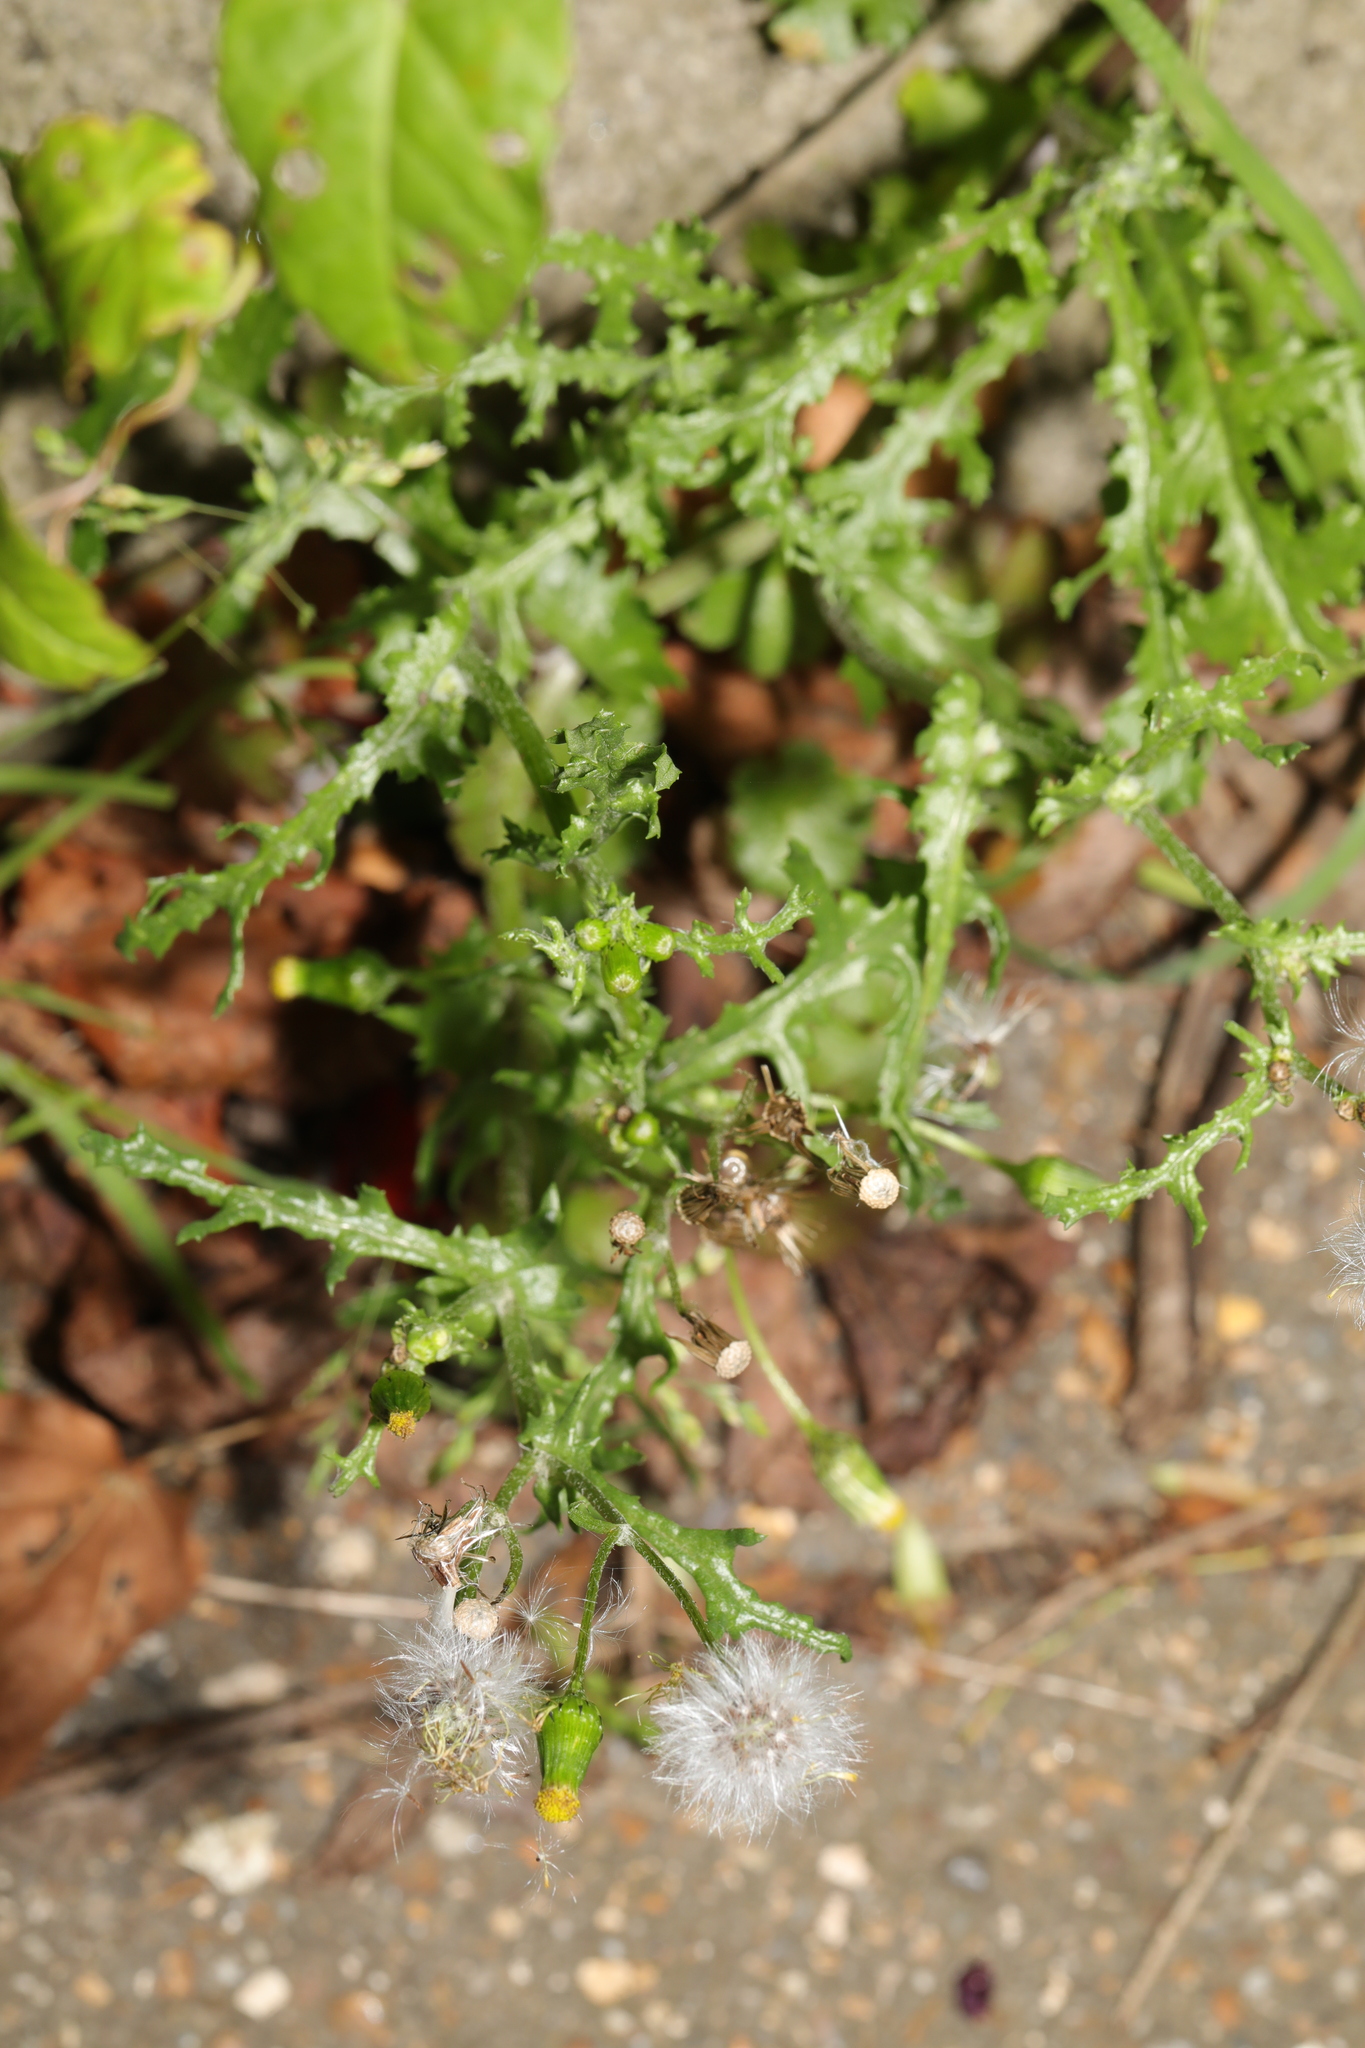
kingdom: Plantae
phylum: Tracheophyta
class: Magnoliopsida
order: Asterales
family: Asteraceae
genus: Senecio
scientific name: Senecio vulgaris
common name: Old-man-in-the-spring
